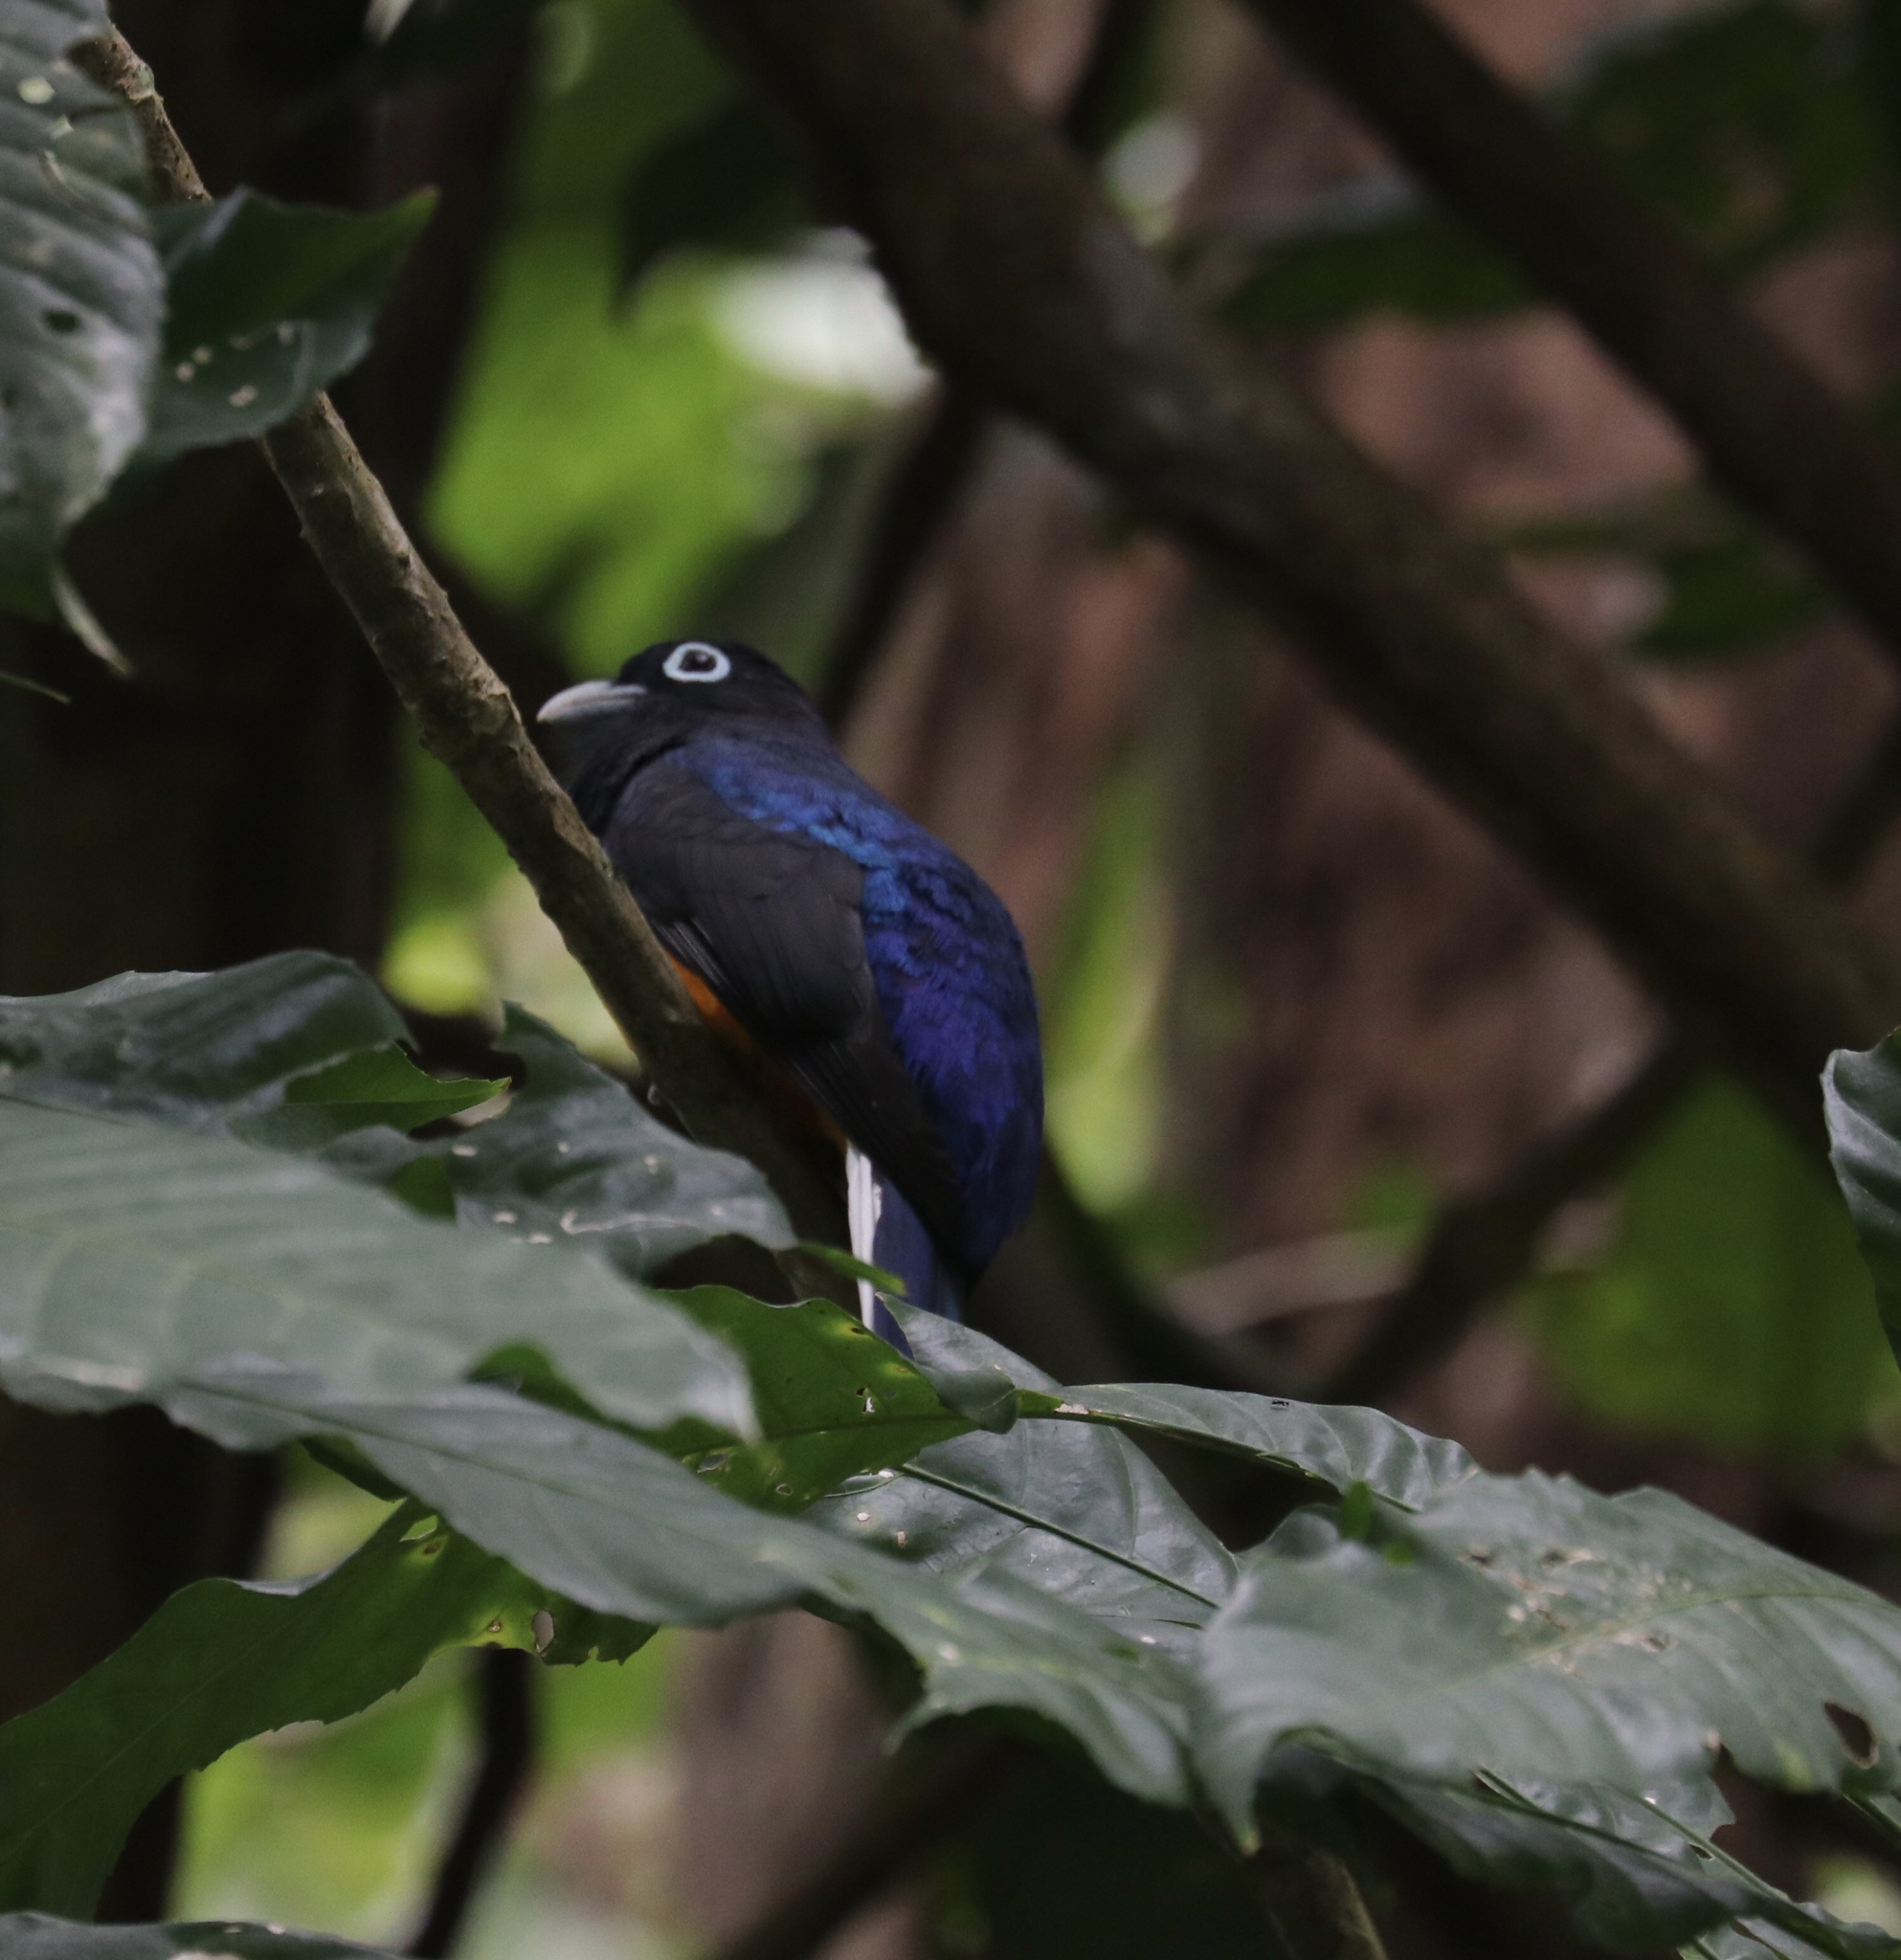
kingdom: Animalia
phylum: Chordata
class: Aves
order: Trogoniformes
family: Trogonidae
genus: Trogon
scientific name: Trogon chionurus
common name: White-tailed trogon
